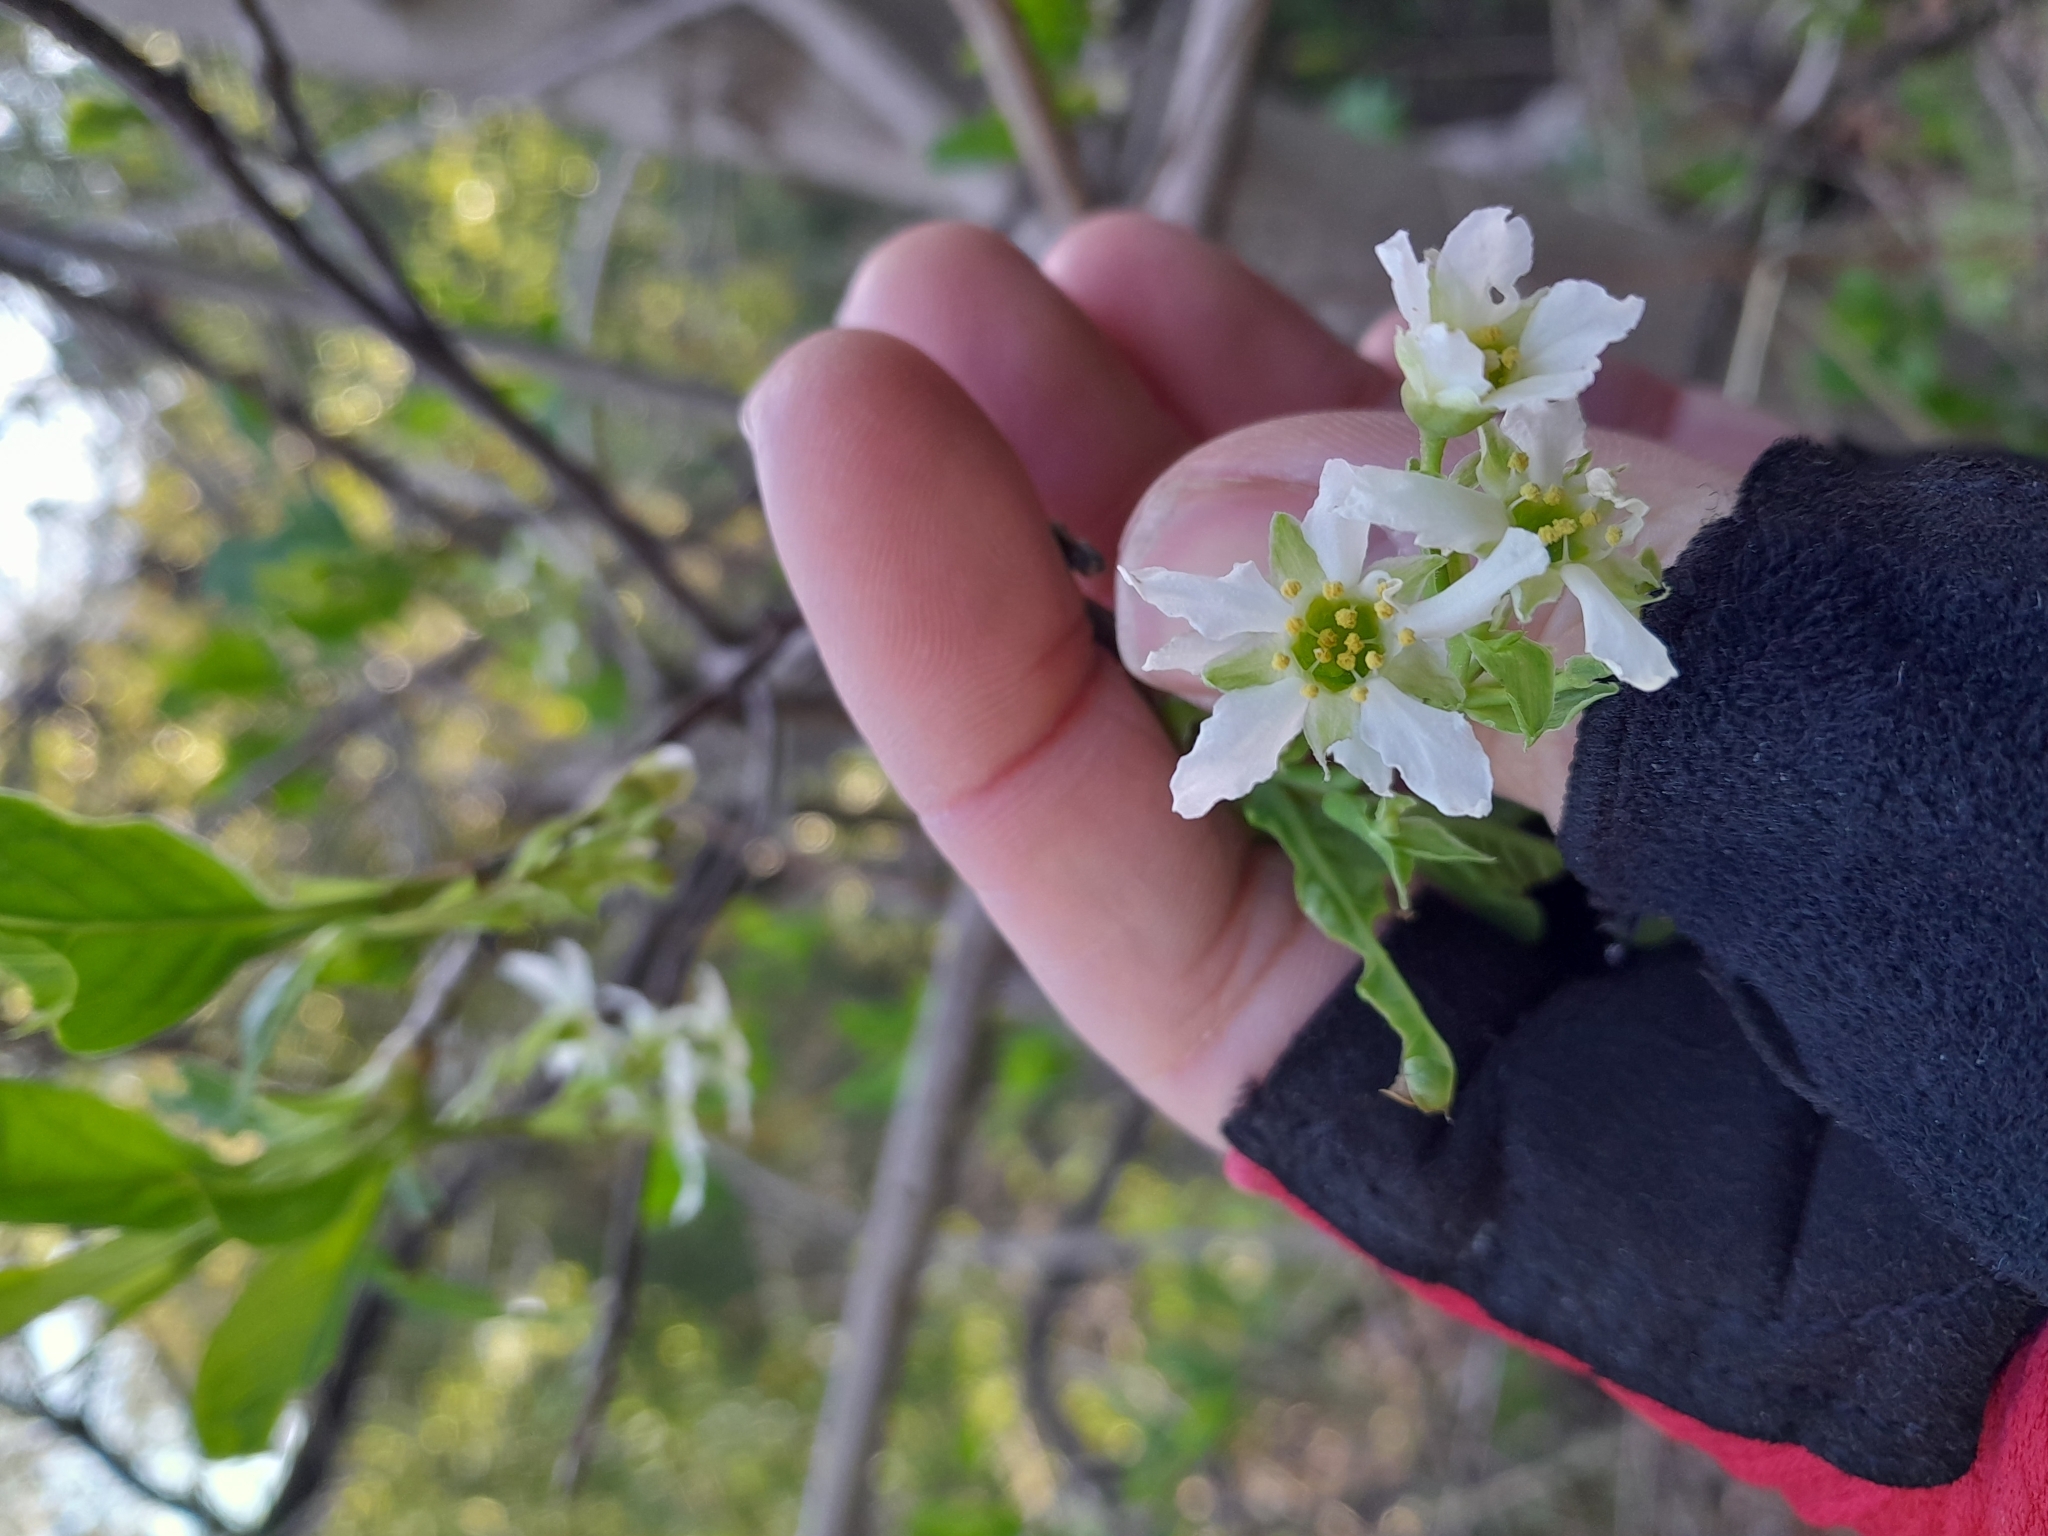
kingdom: Plantae
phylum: Tracheophyta
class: Magnoliopsida
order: Rosales
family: Rosaceae
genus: Oemleria
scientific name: Oemleria cerasiformis
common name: Osoberry
